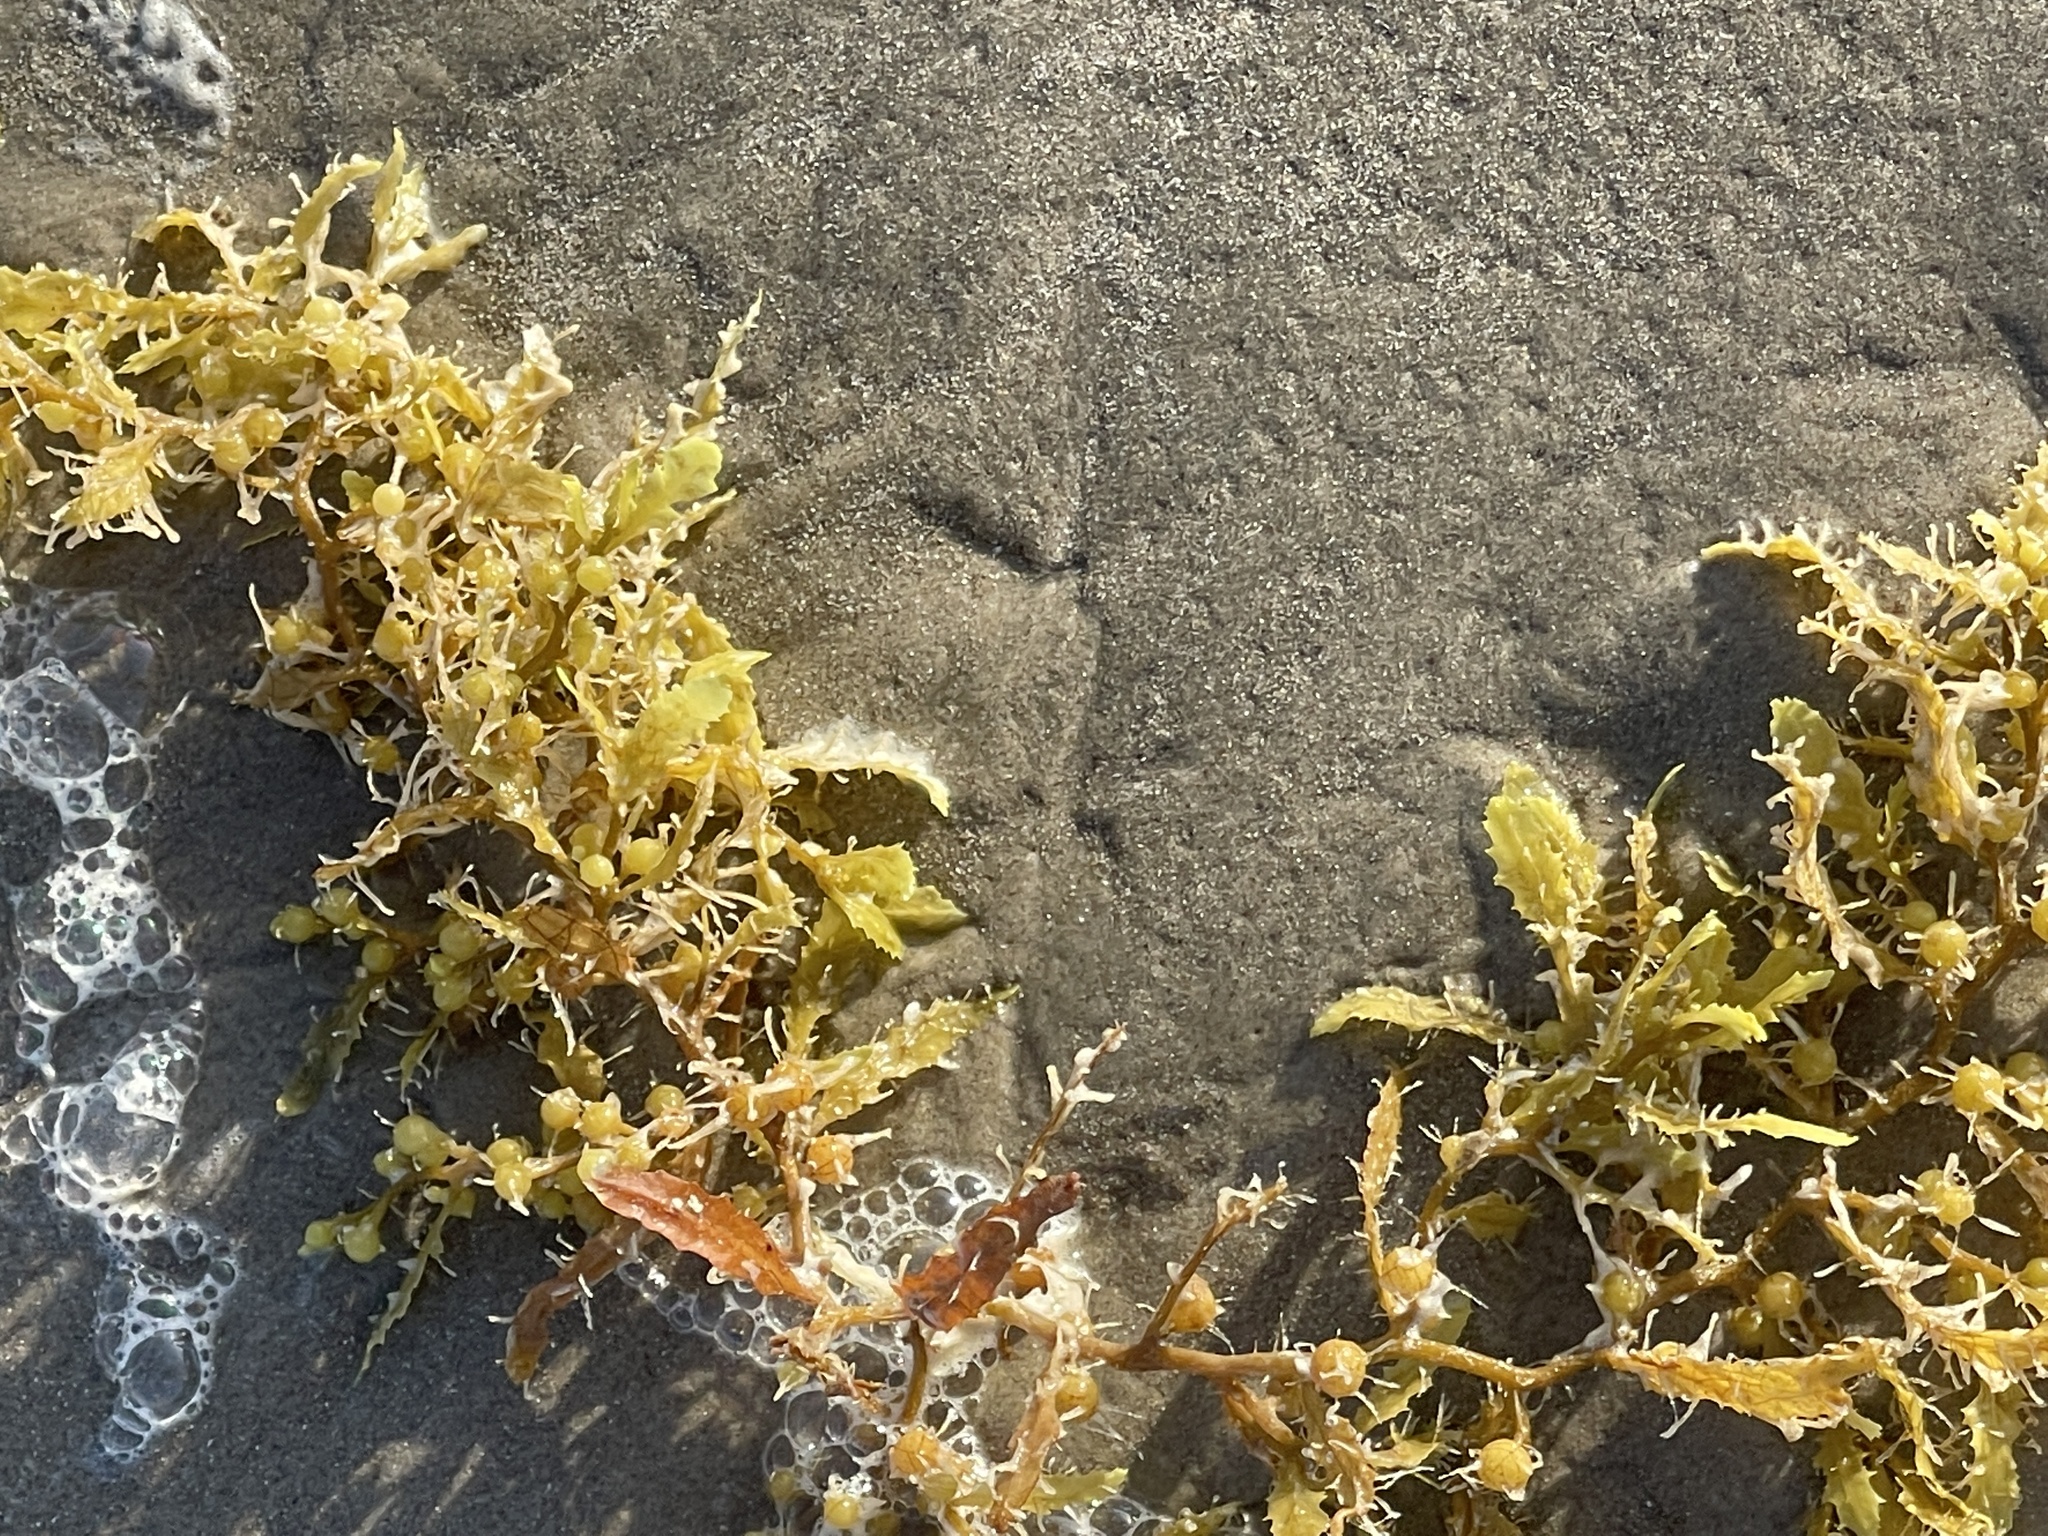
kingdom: Chromista
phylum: Ochrophyta
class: Phaeophyceae
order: Fucales
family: Sargassaceae
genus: Sargassum
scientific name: Sargassum fluitans
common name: Sargassum seaweed
